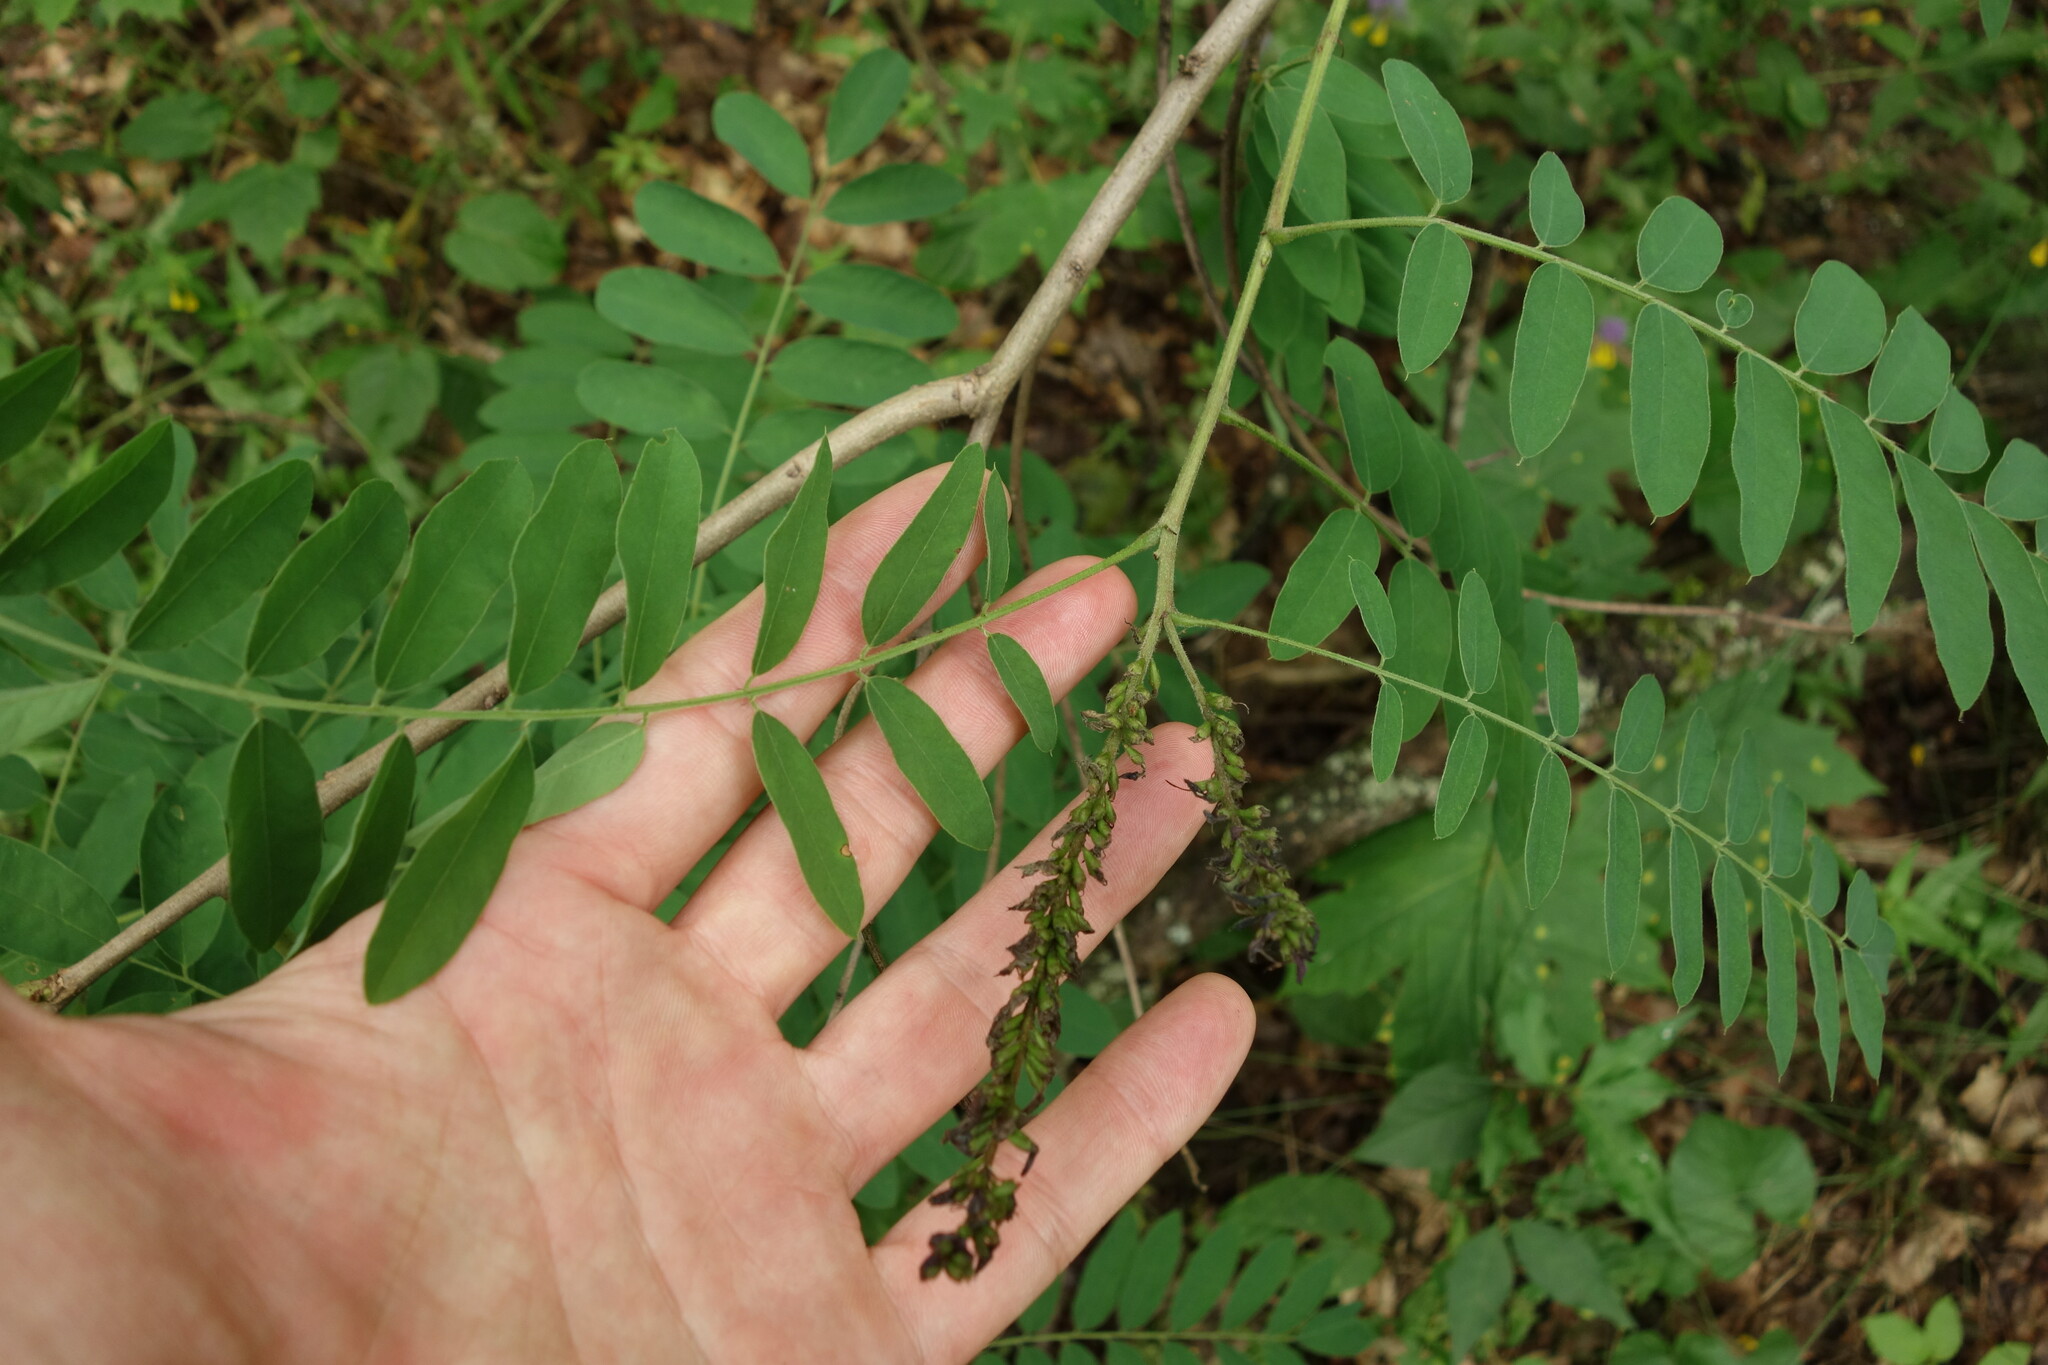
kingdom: Plantae
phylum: Tracheophyta
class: Magnoliopsida
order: Fabales
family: Fabaceae
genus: Amorpha
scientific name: Amorpha fruticosa
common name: False indigo
